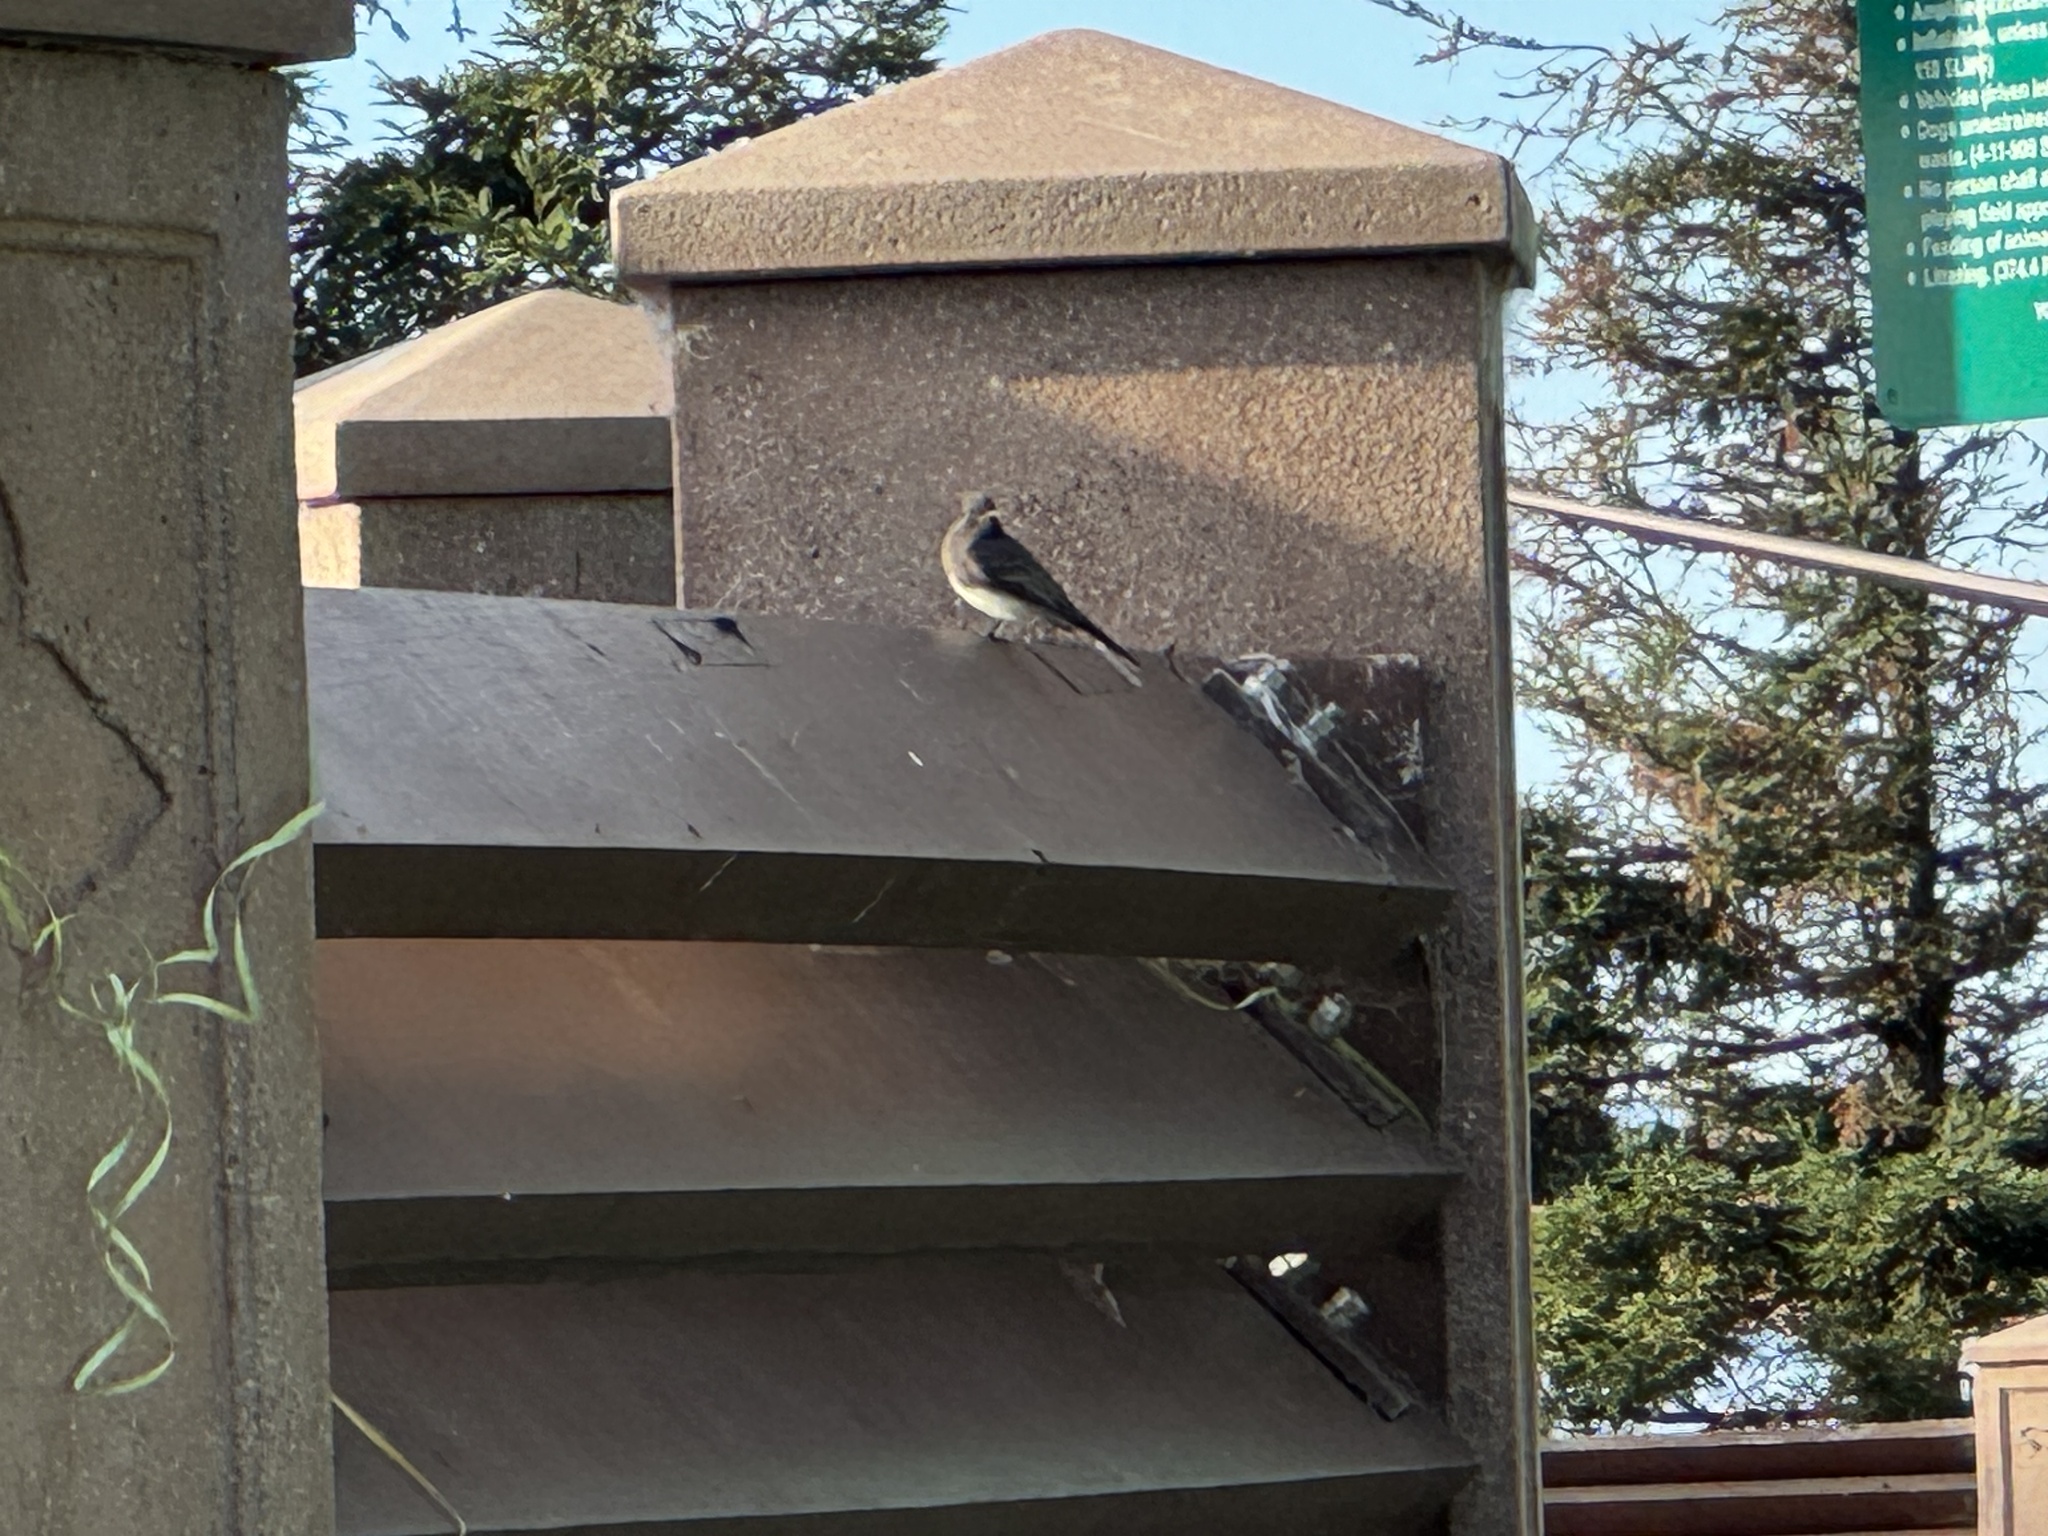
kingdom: Animalia
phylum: Chordata
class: Aves
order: Passeriformes
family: Tyrannidae
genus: Sayornis
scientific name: Sayornis nigricans
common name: Black phoebe
